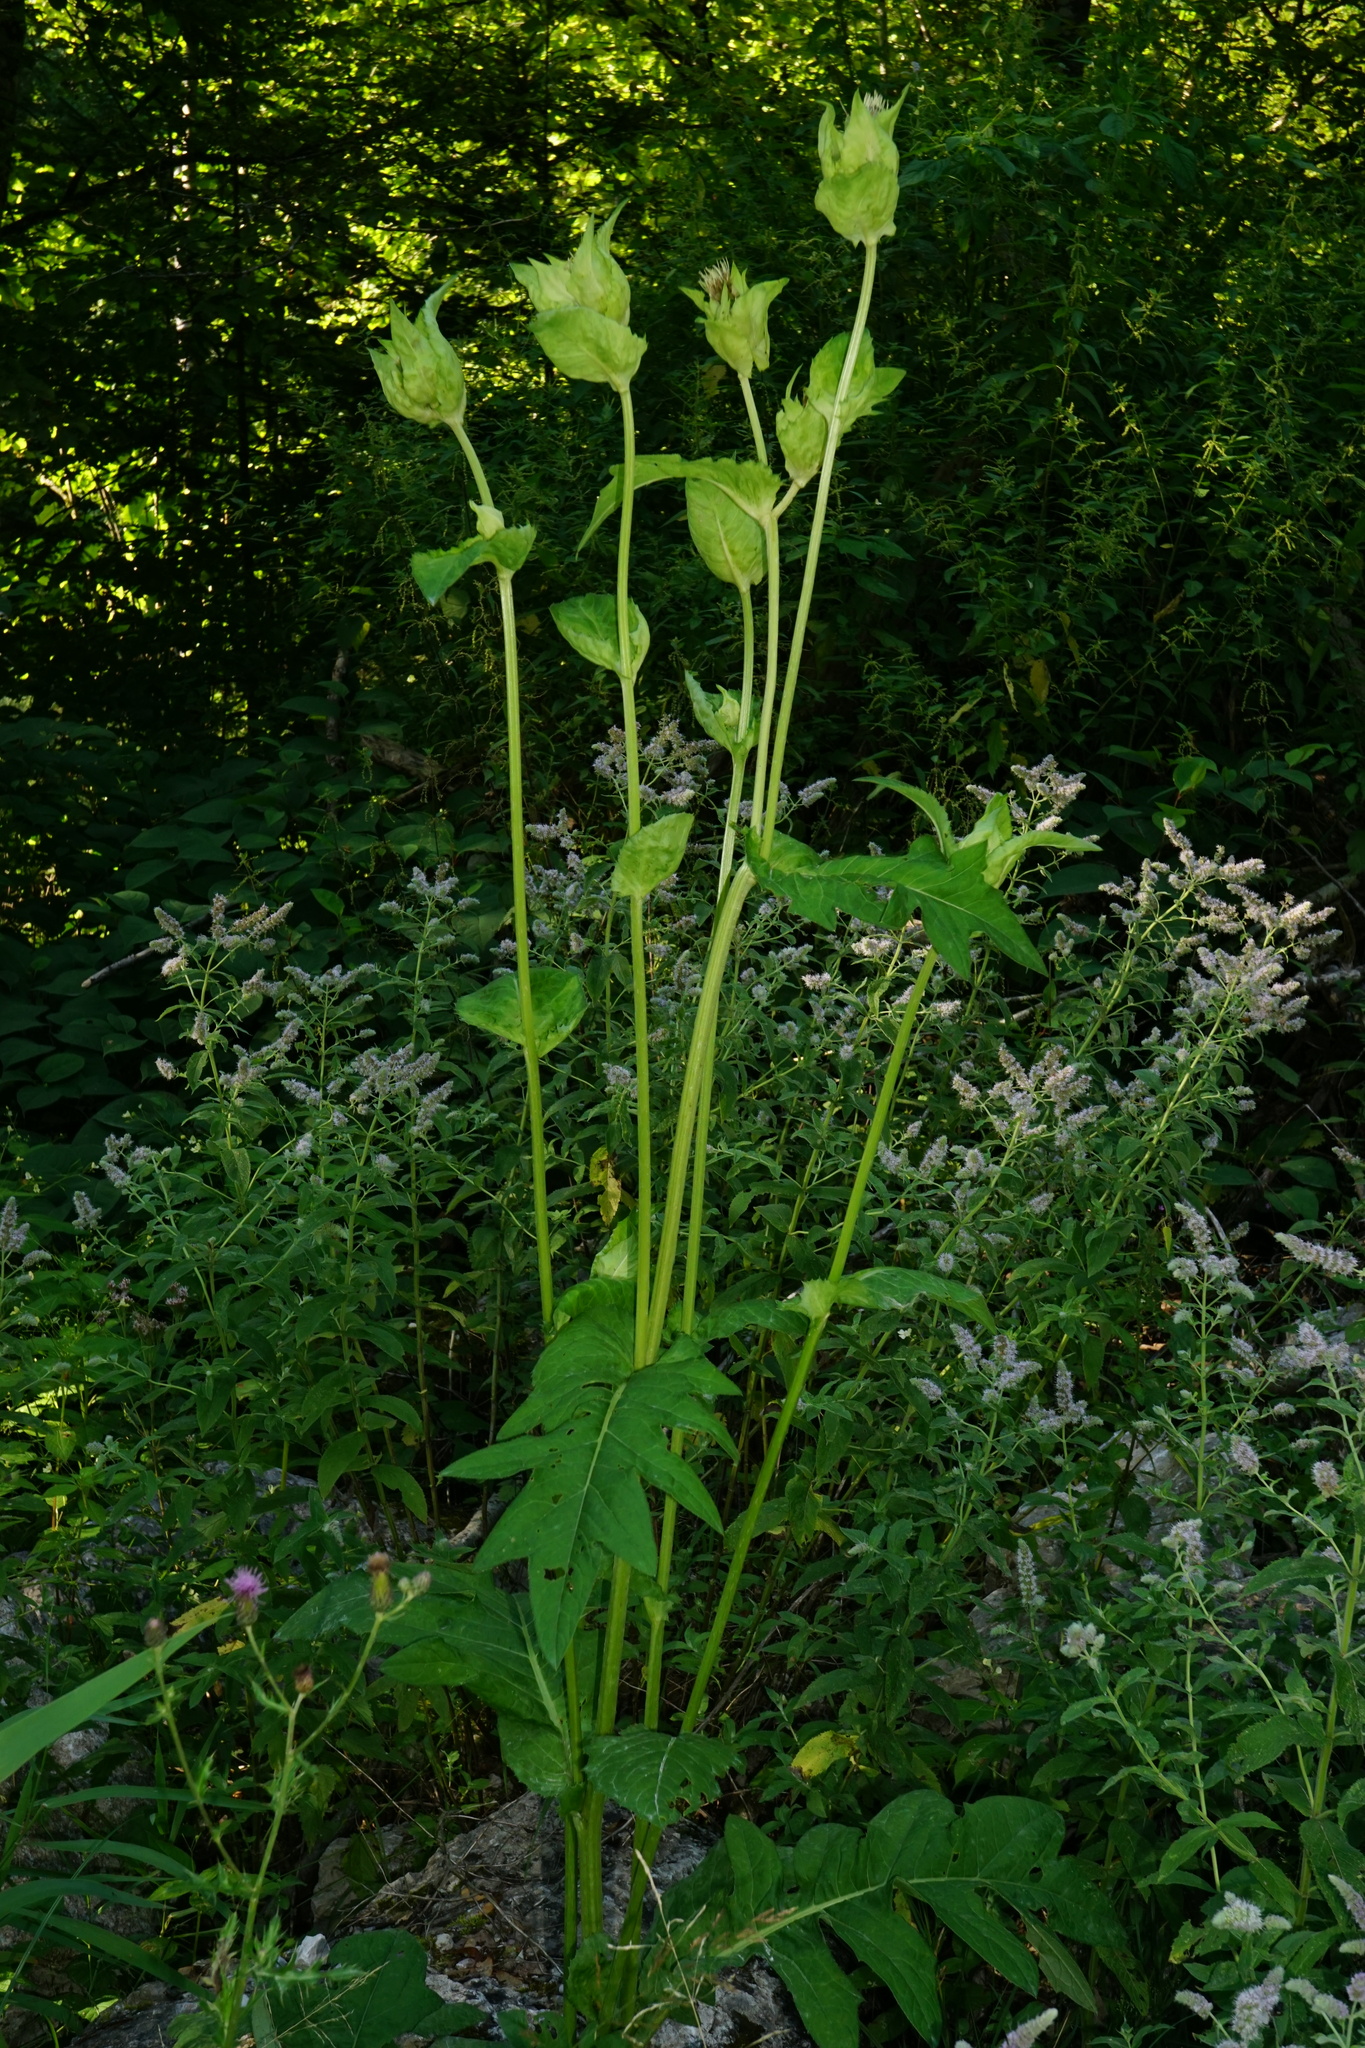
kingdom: Plantae
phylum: Tracheophyta
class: Magnoliopsida
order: Asterales
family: Asteraceae
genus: Cirsium
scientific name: Cirsium oleraceum
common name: Cabbage thistle
